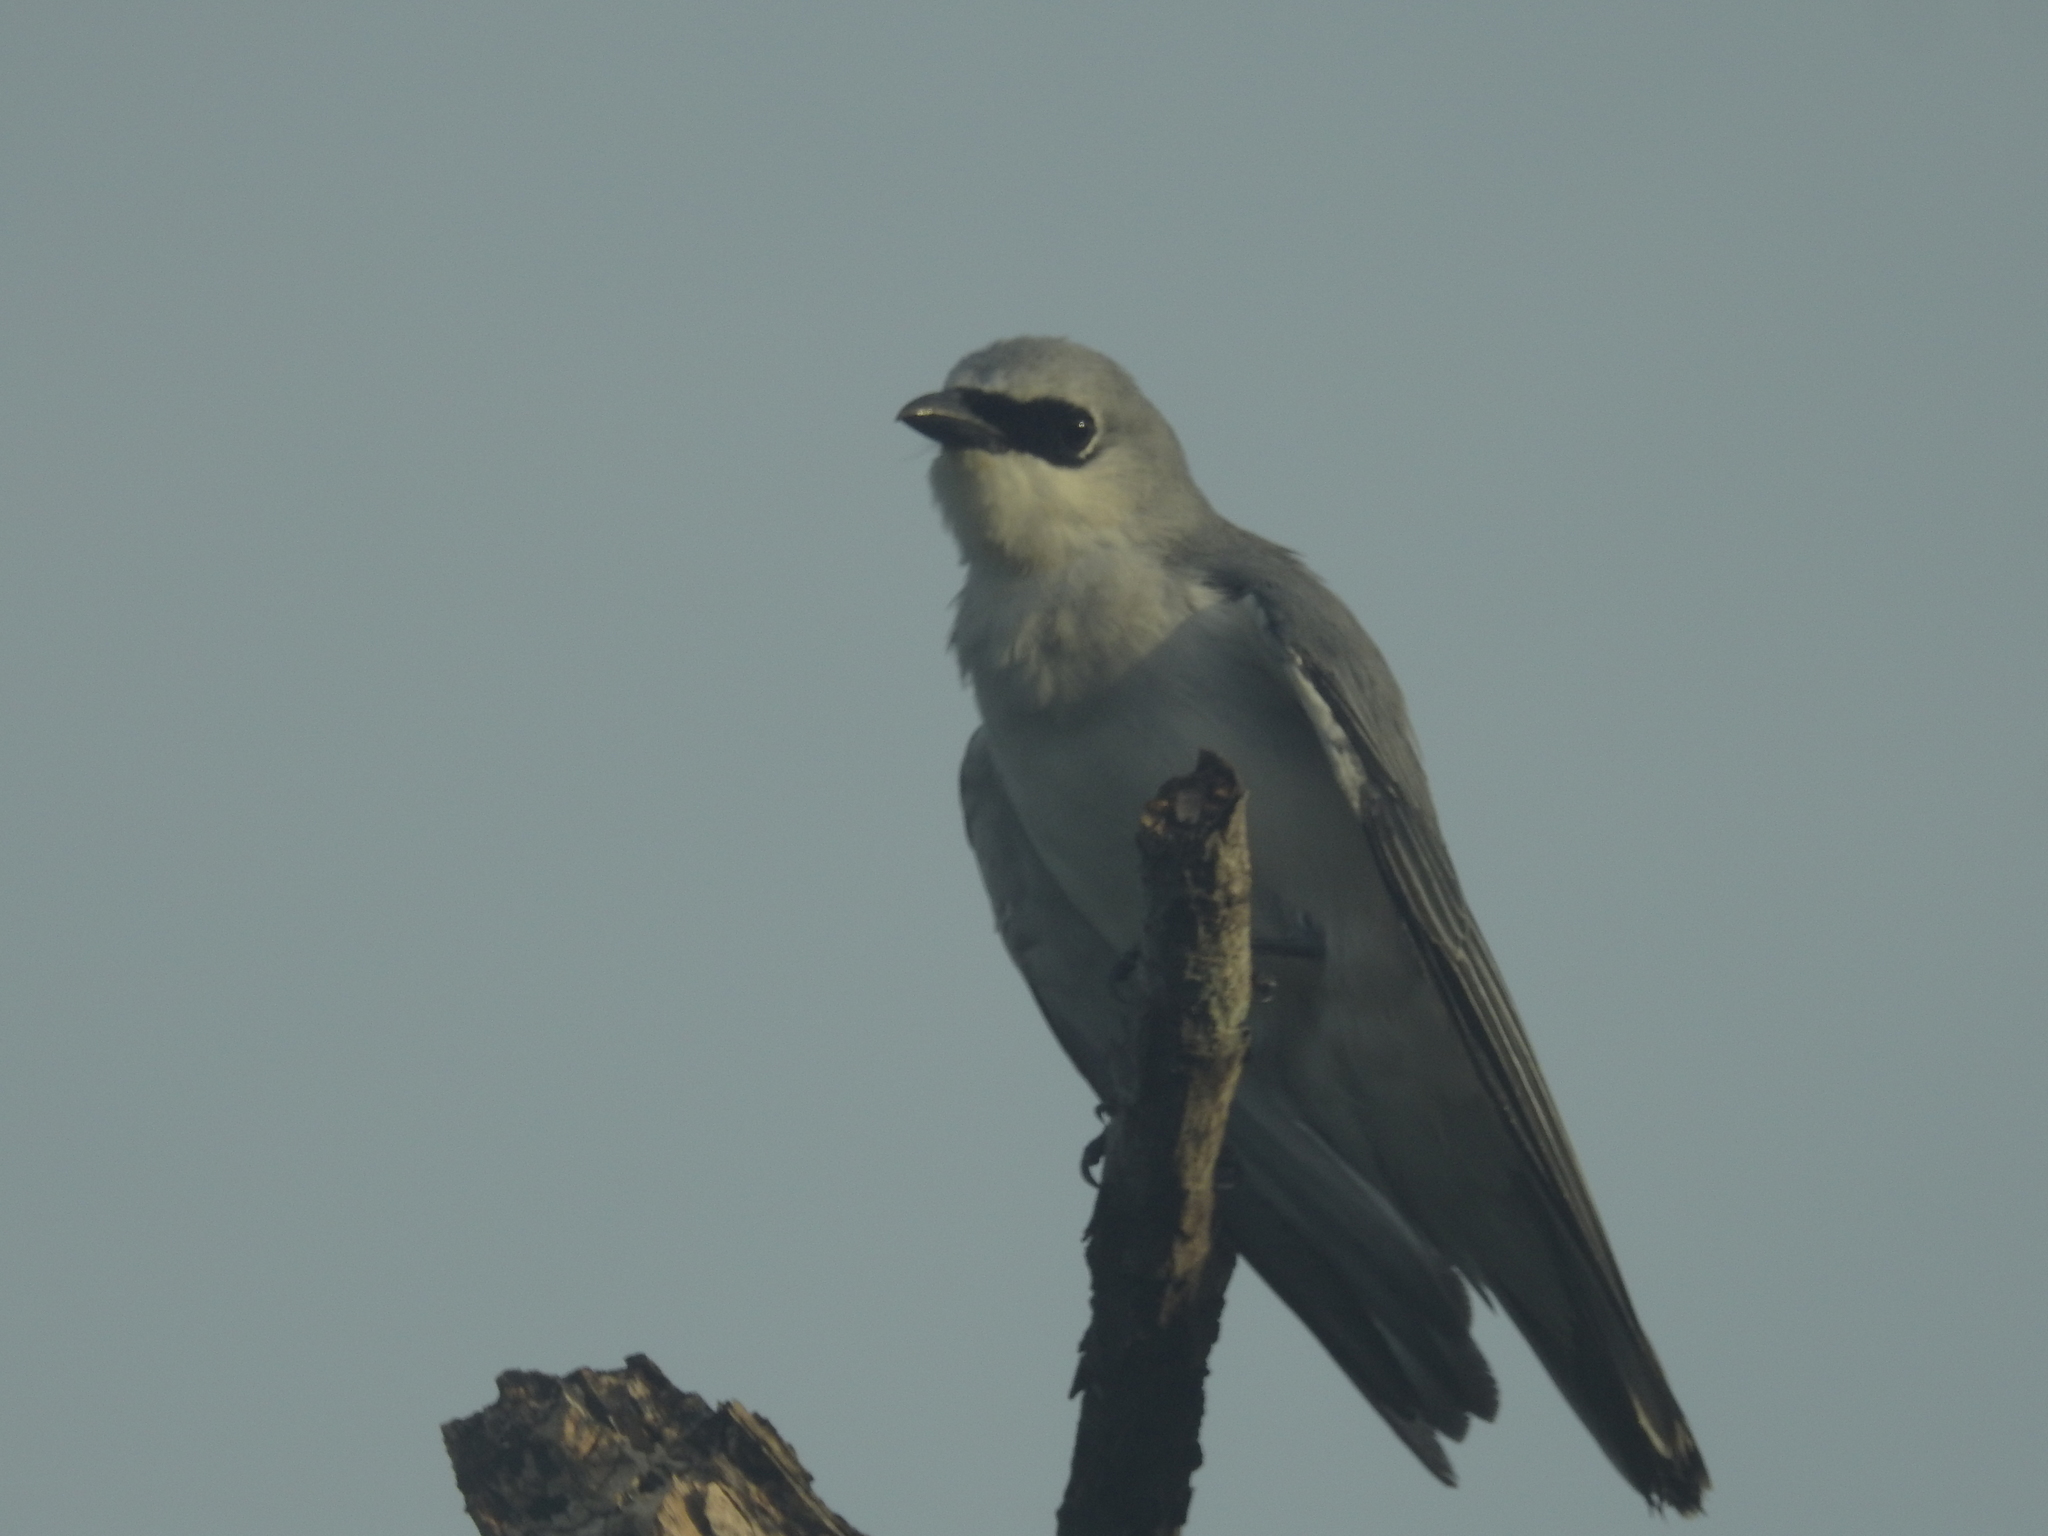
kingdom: Animalia
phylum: Chordata
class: Aves
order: Passeriformes
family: Campephagidae
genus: Coracina
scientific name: Coracina papuensis
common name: White-bellied cuckooshrike
